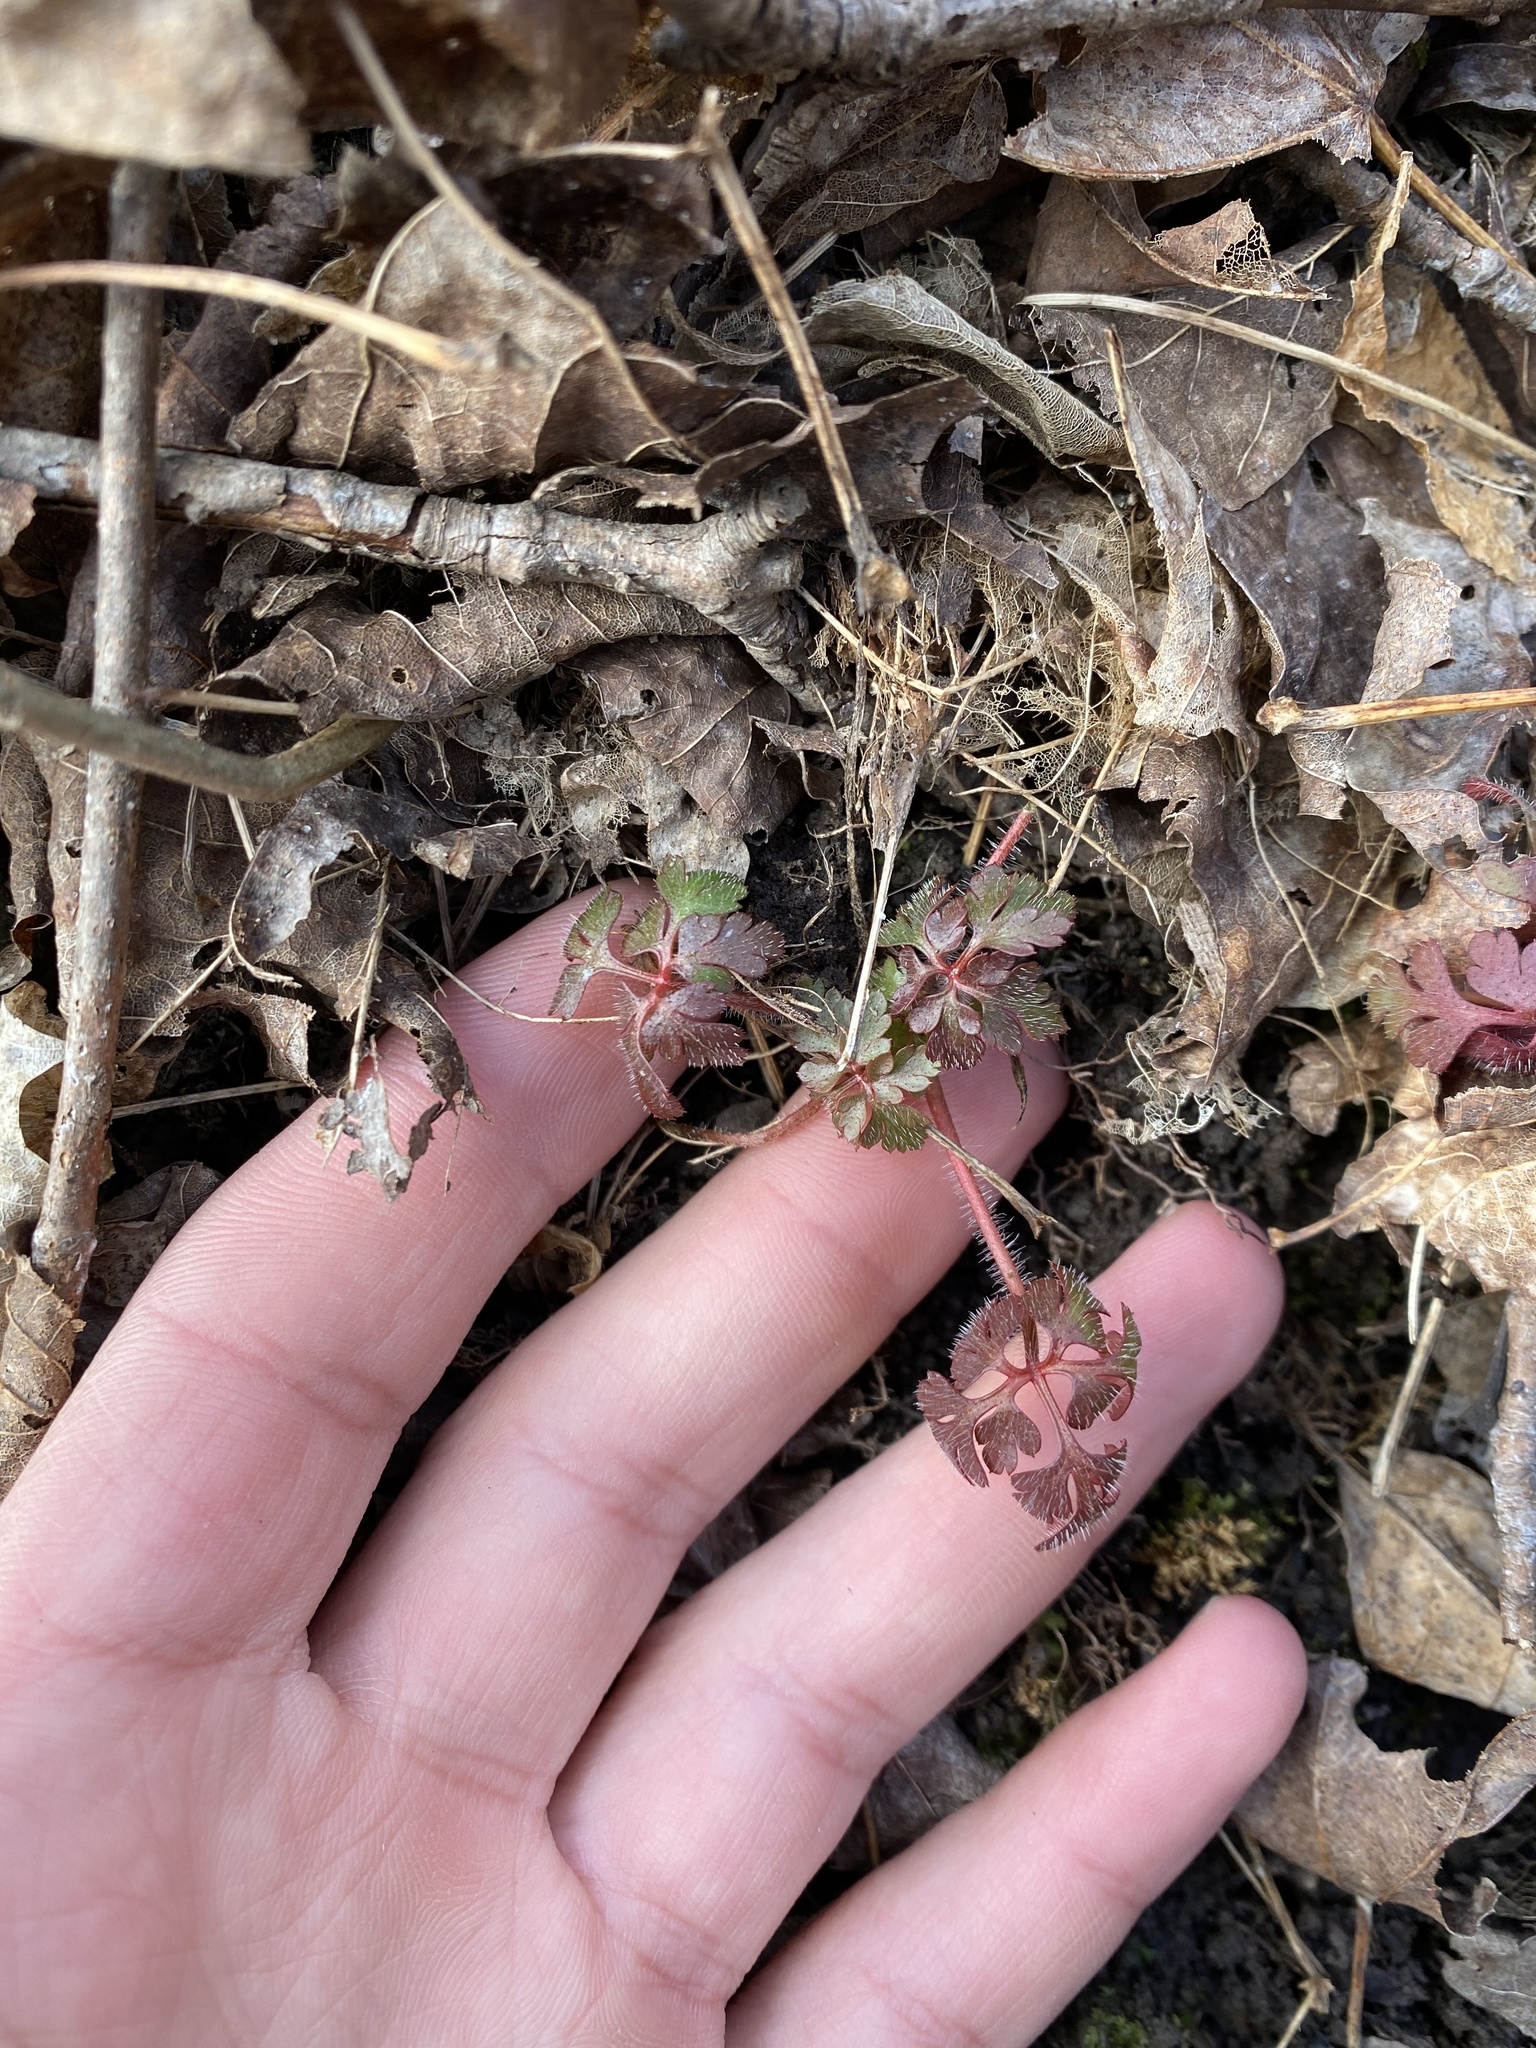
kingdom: Plantae
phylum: Tracheophyta
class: Magnoliopsida
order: Geraniales
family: Geraniaceae
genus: Geranium
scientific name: Geranium robertianum
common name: Herb-robert
